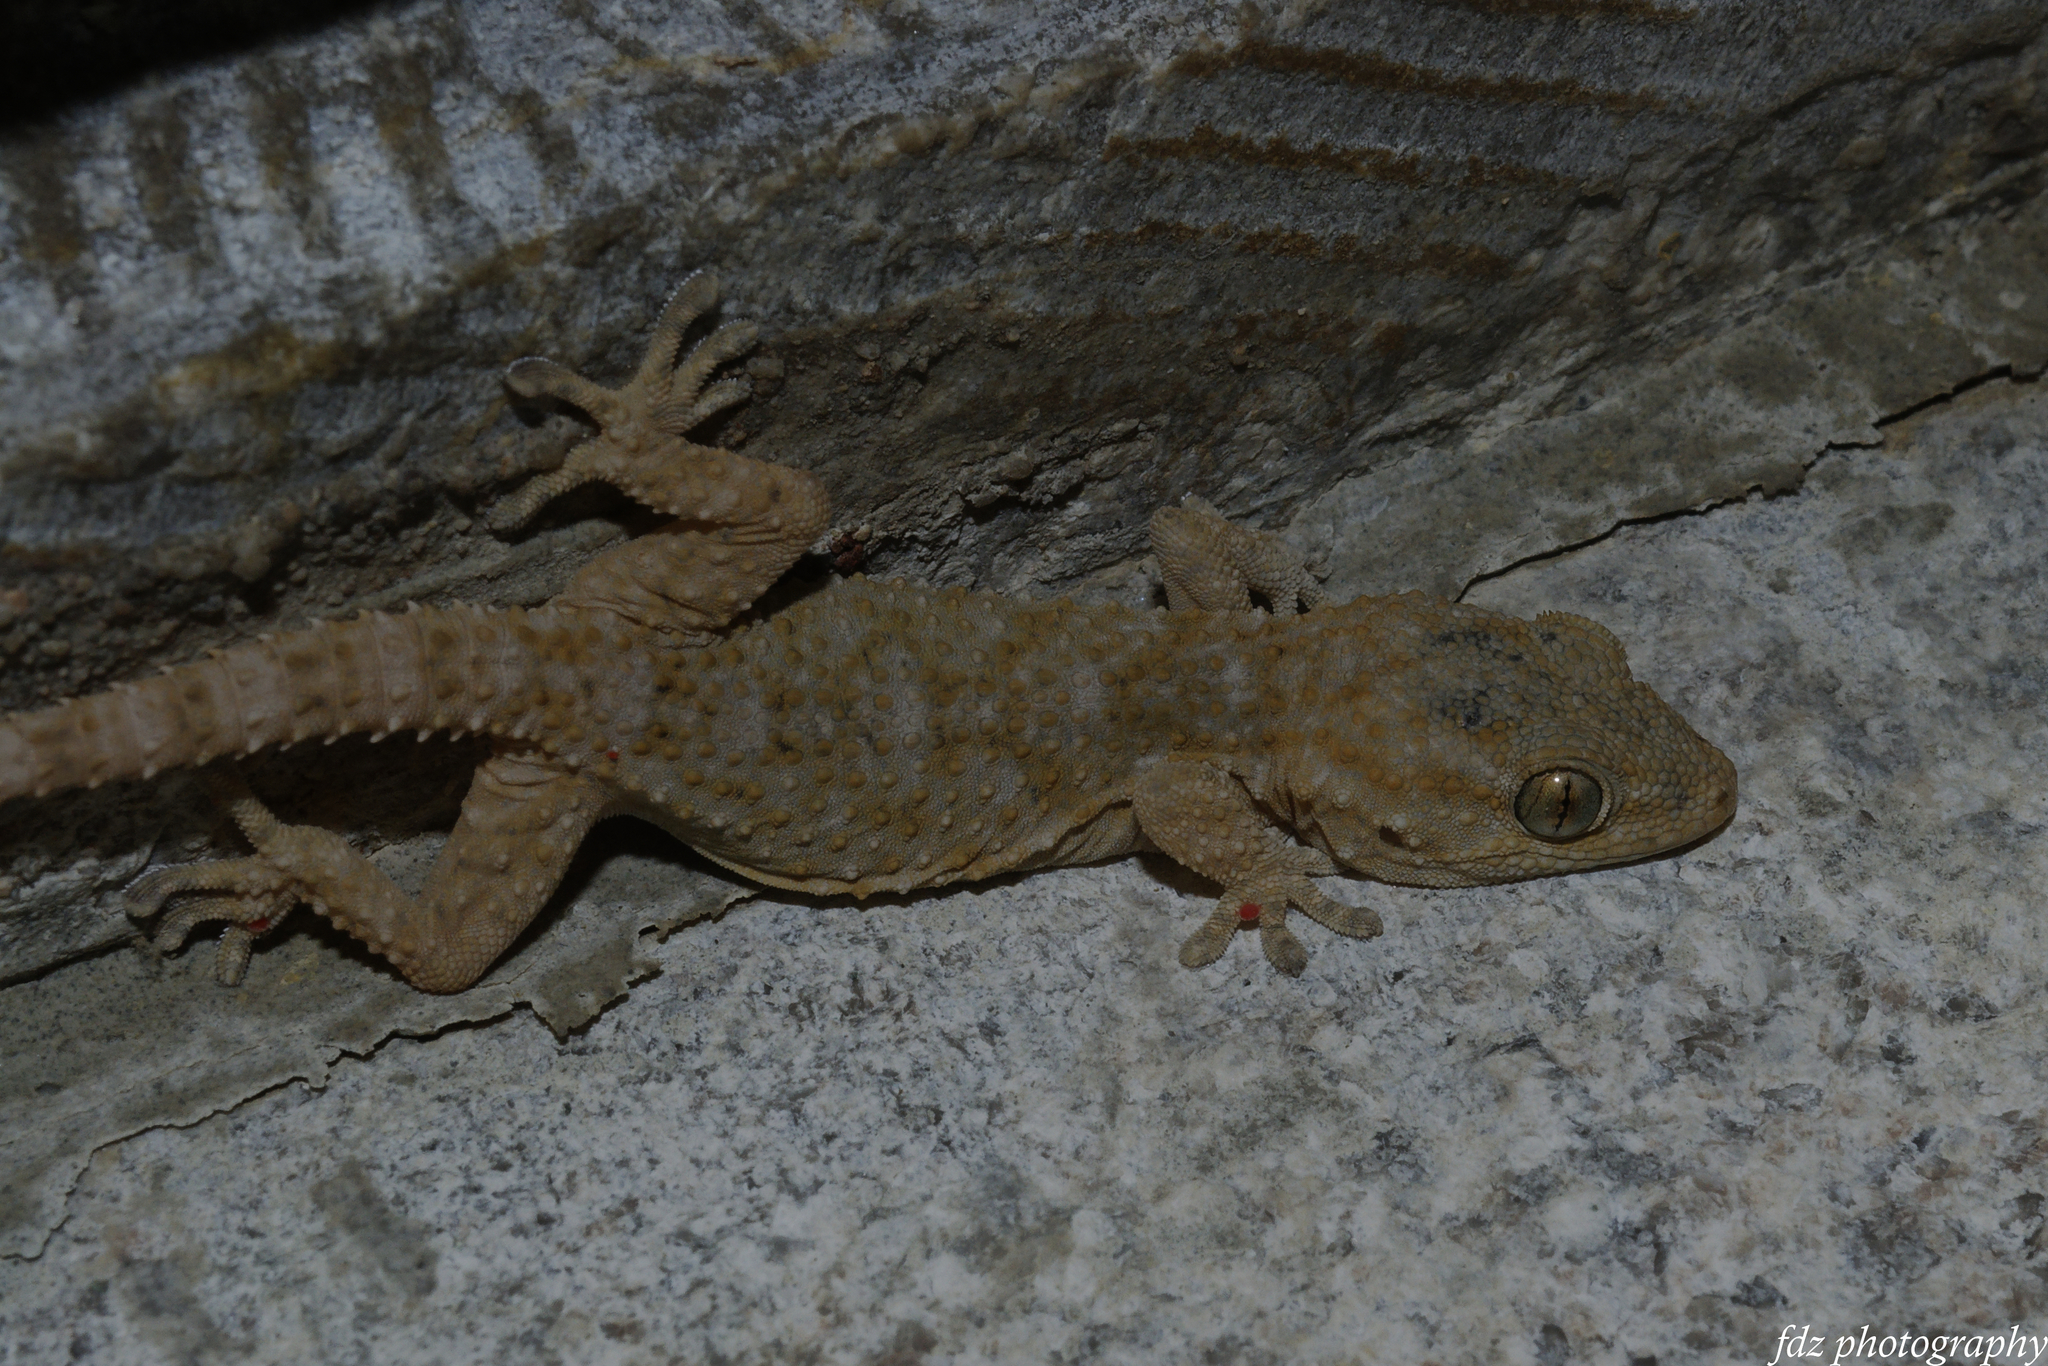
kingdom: Animalia
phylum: Chordata
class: Squamata
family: Phyllodactylidae
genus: Tarentola
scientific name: Tarentola mauritanica
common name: Moorish gecko
